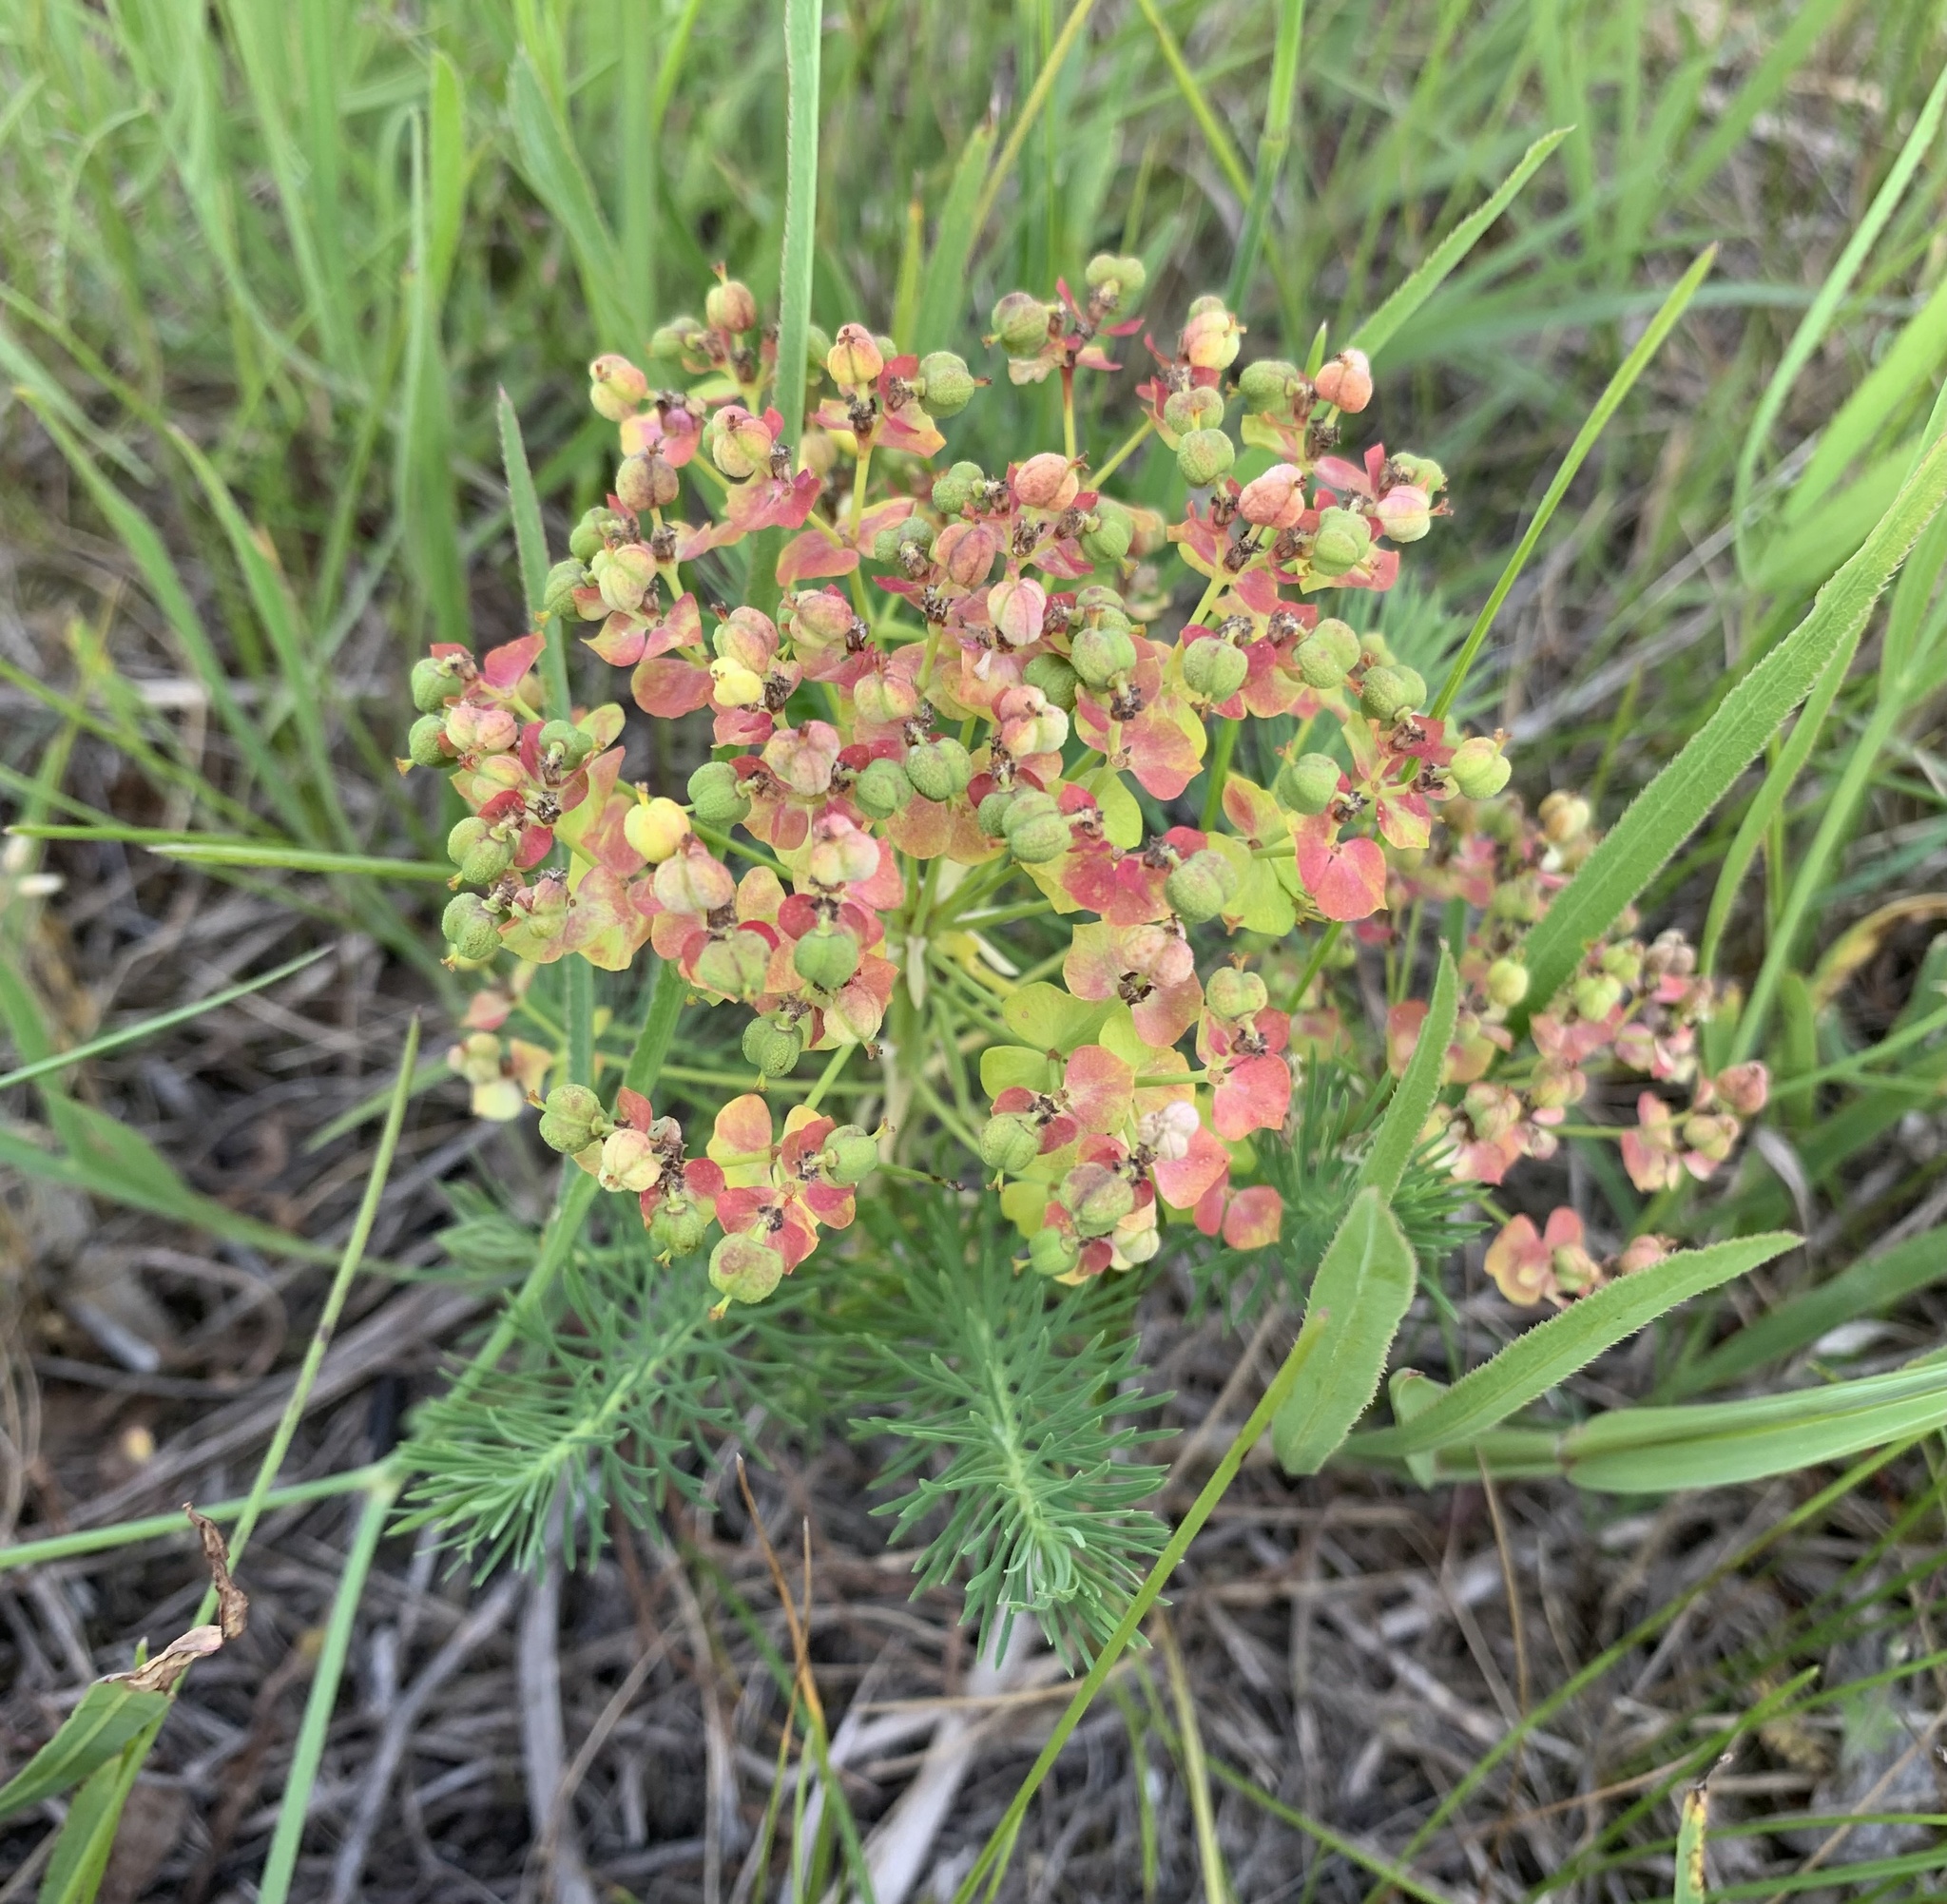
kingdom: Plantae
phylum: Tracheophyta
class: Magnoliopsida
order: Malpighiales
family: Euphorbiaceae
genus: Euphorbia
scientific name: Euphorbia cyparissias
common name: Cypress spurge
